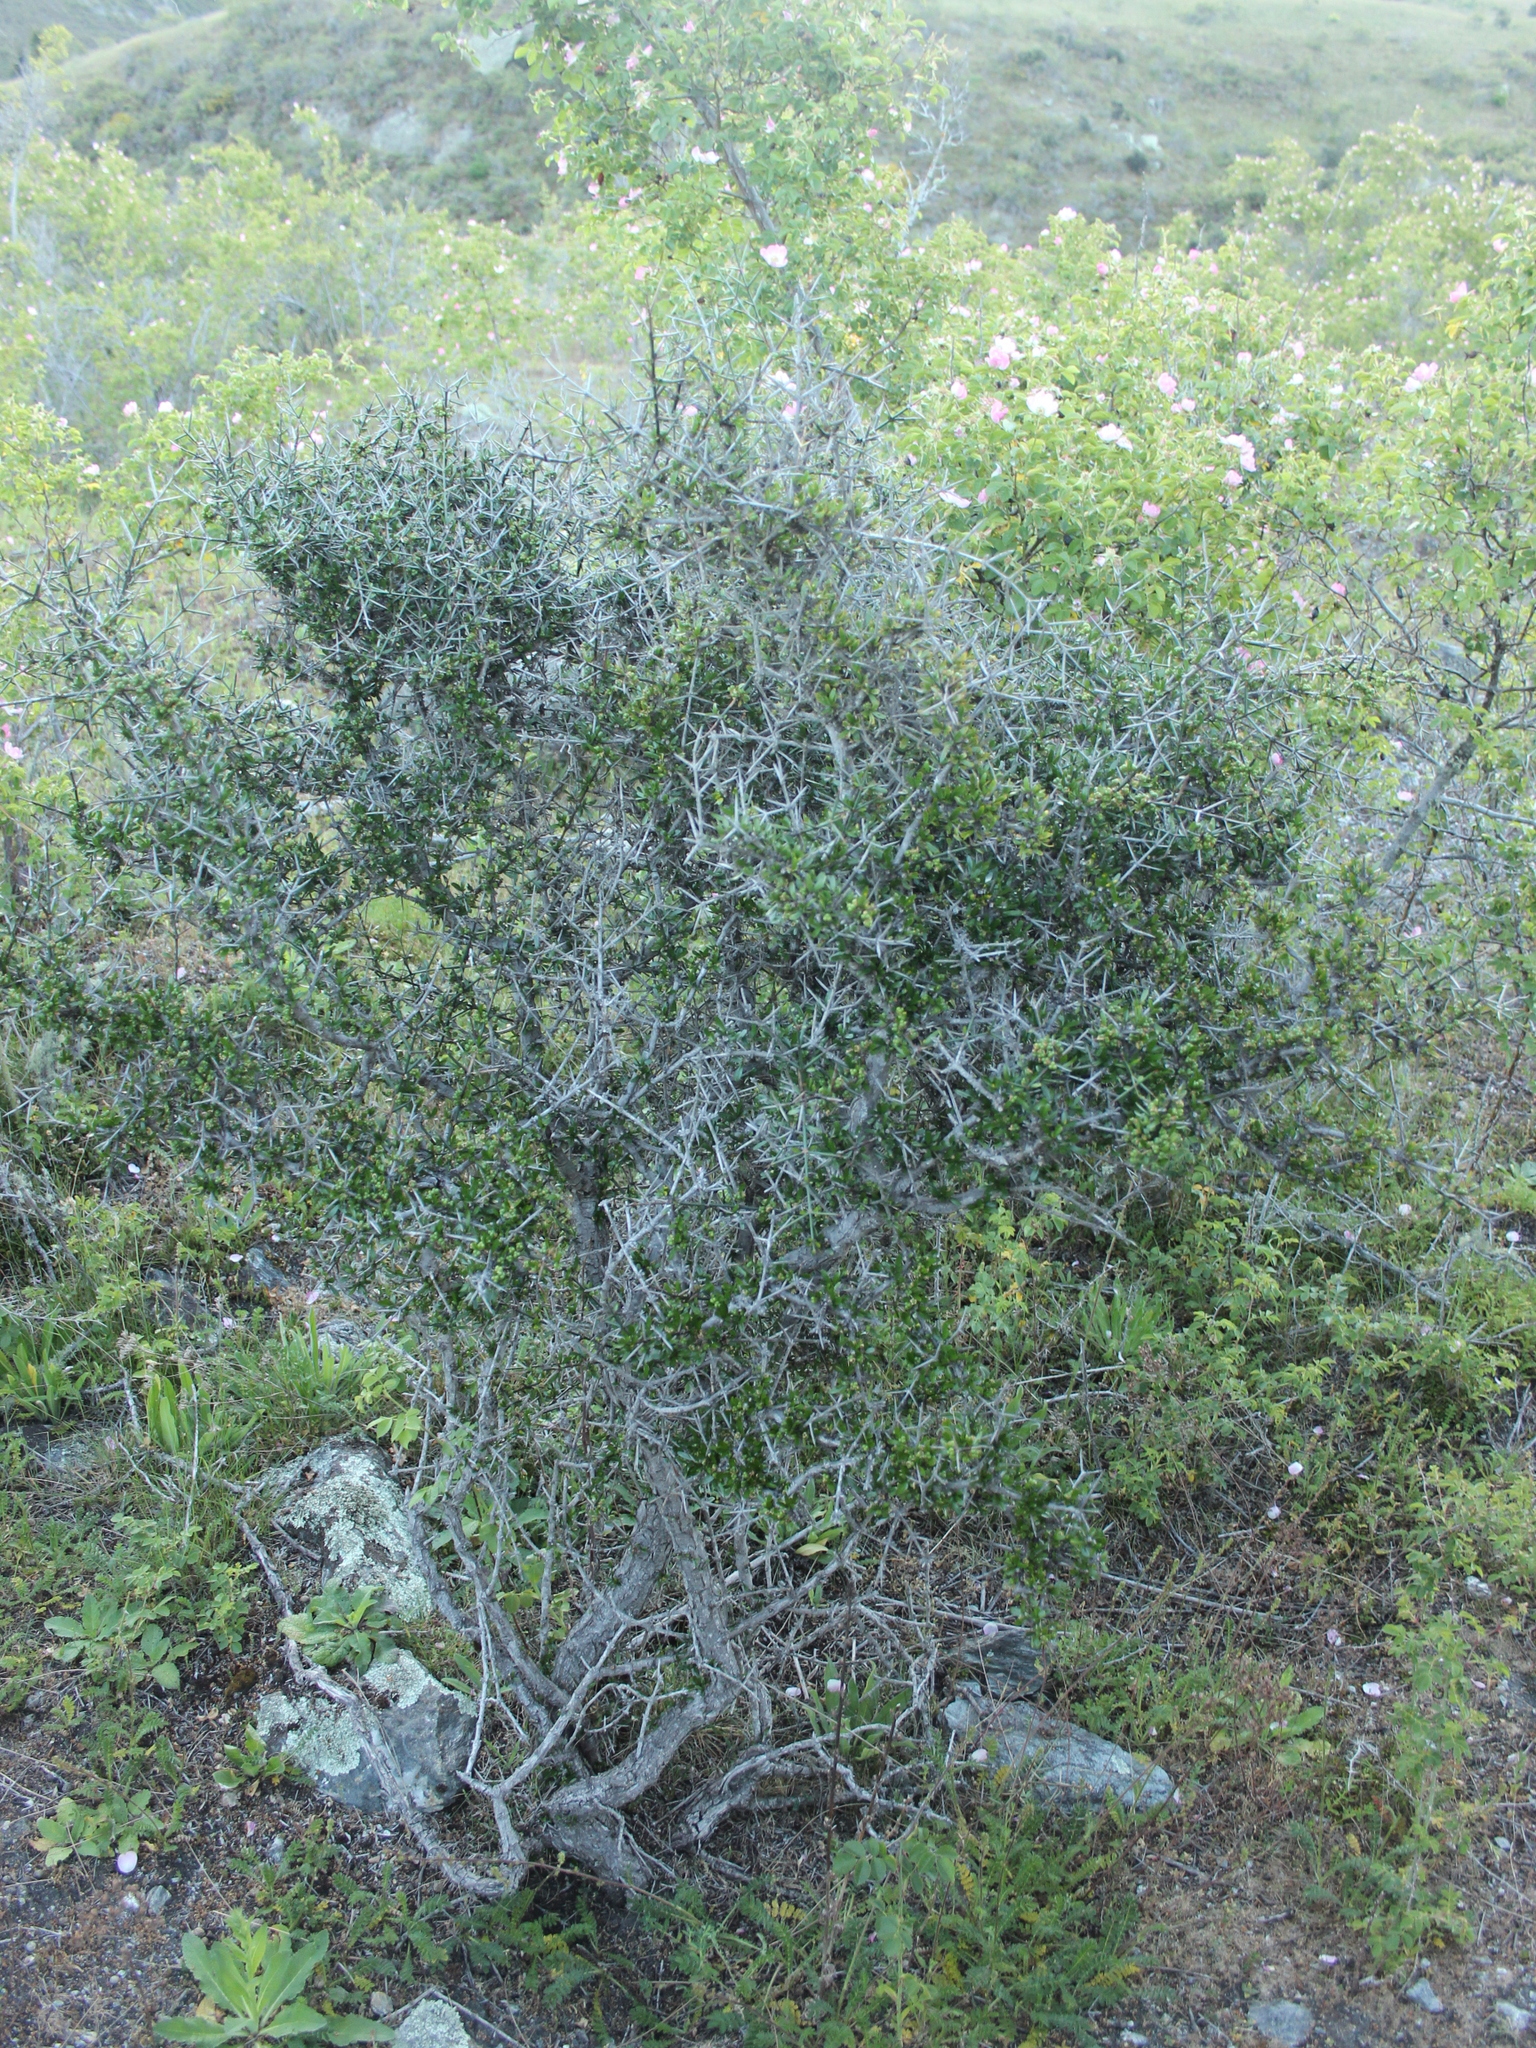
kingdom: Plantae
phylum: Tracheophyta
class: Magnoliopsida
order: Rosales
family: Rhamnaceae
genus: Discaria
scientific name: Discaria toumatou
